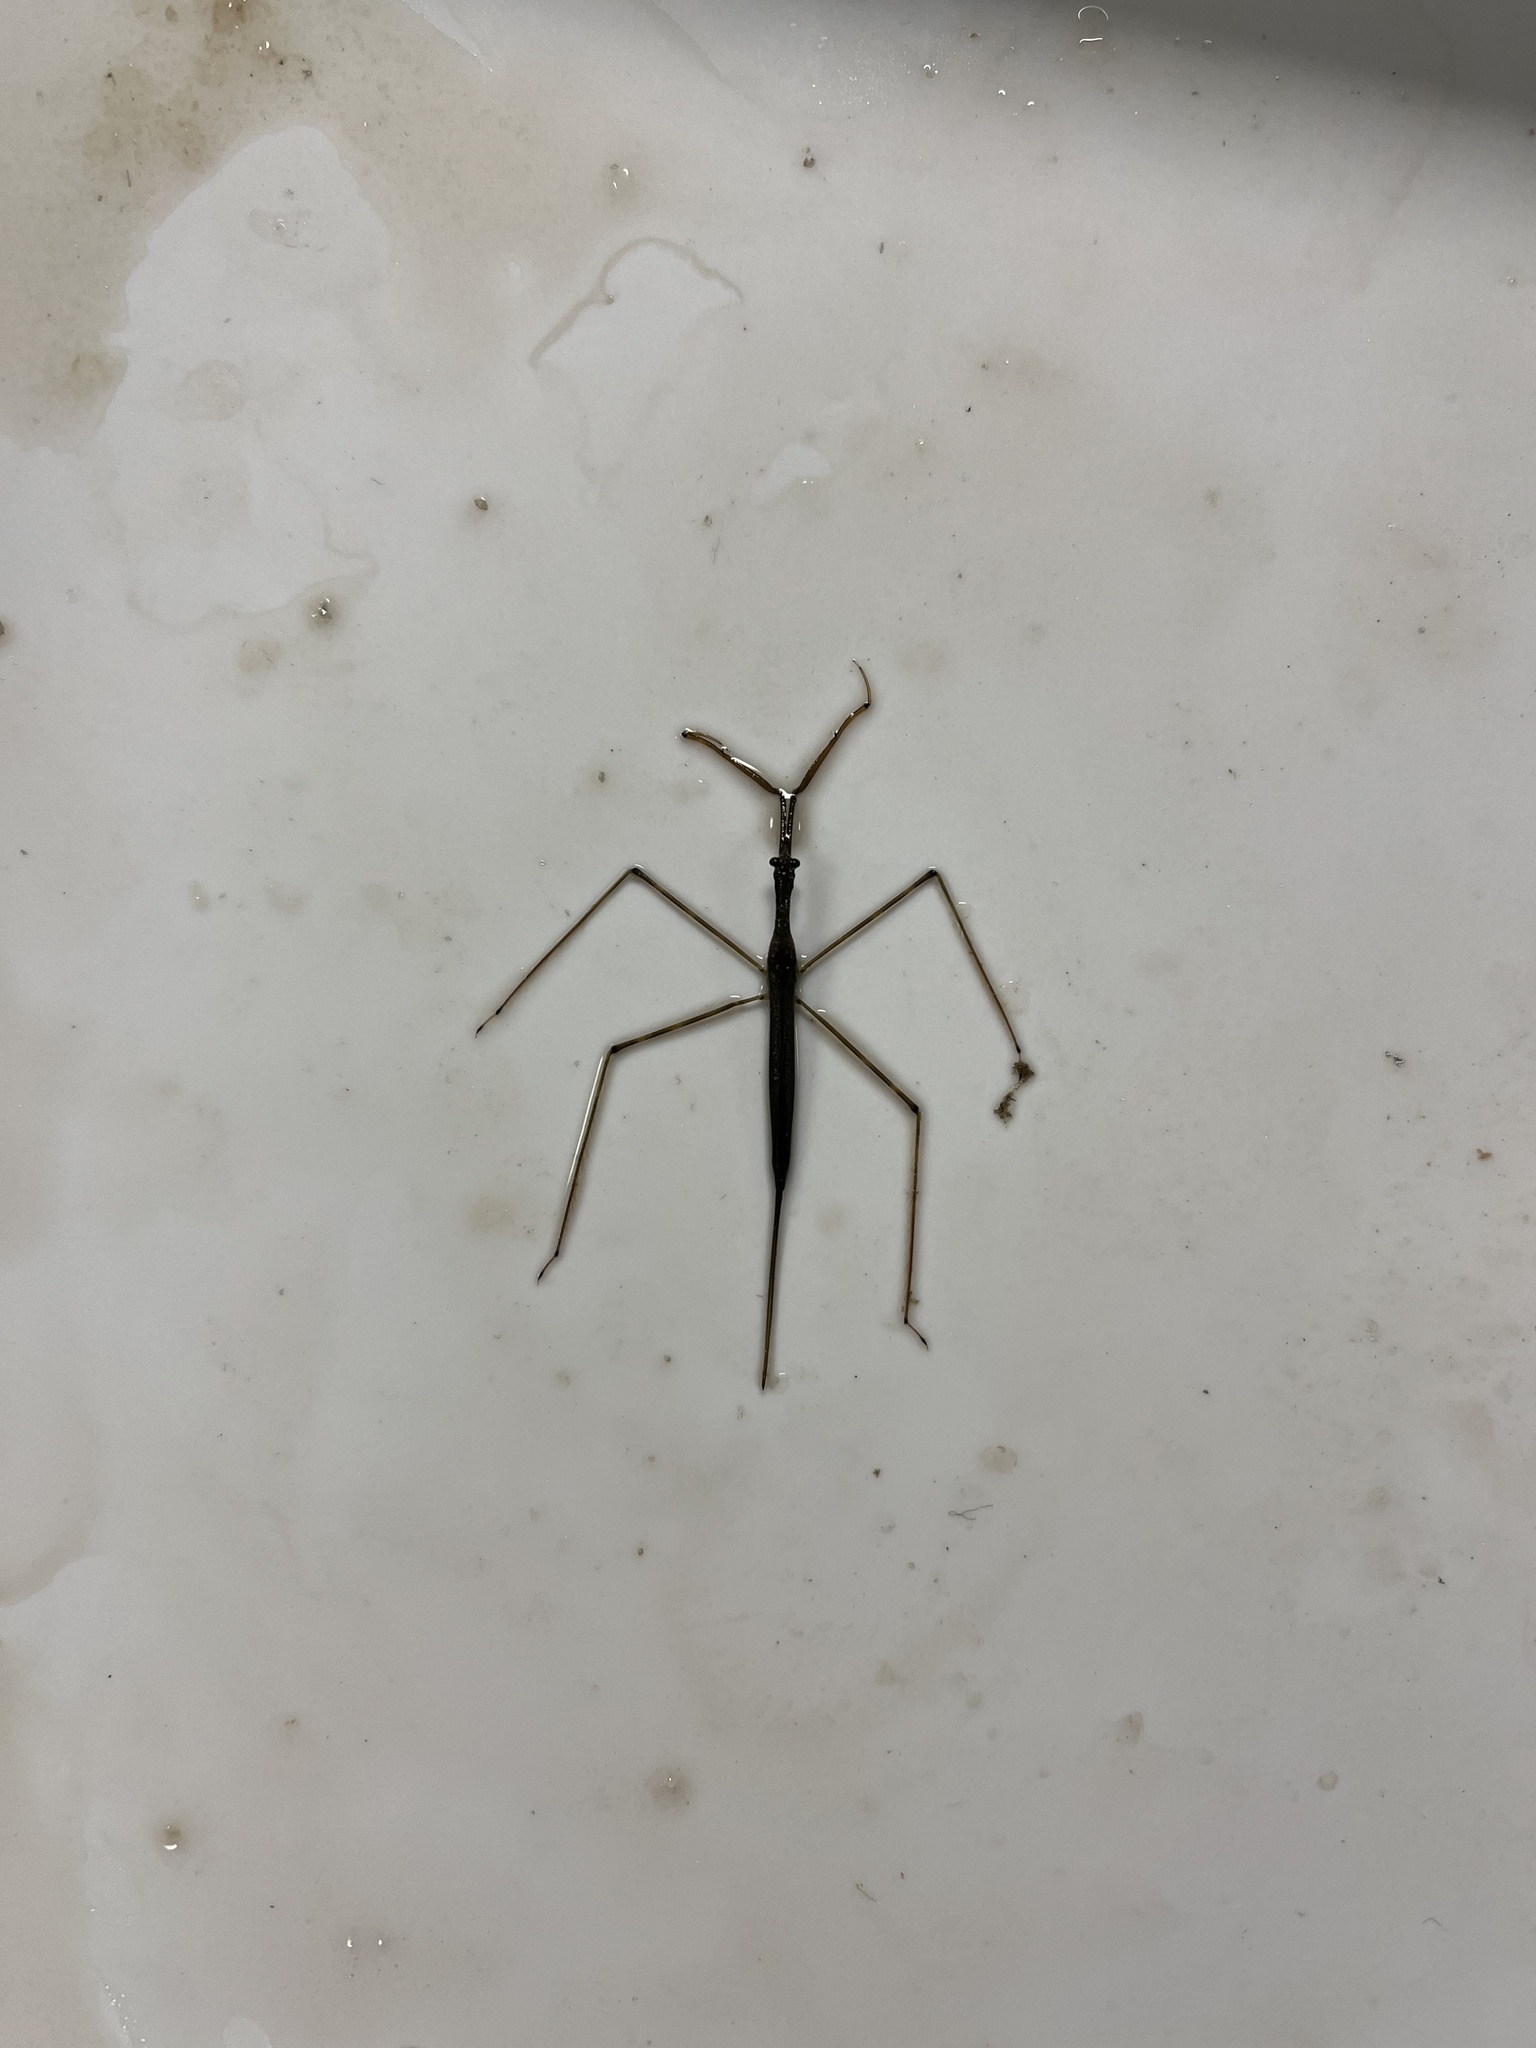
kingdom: Animalia
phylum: Arthropoda
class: Insecta
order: Hemiptera
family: Nepidae
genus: Ranatra
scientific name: Ranatra
